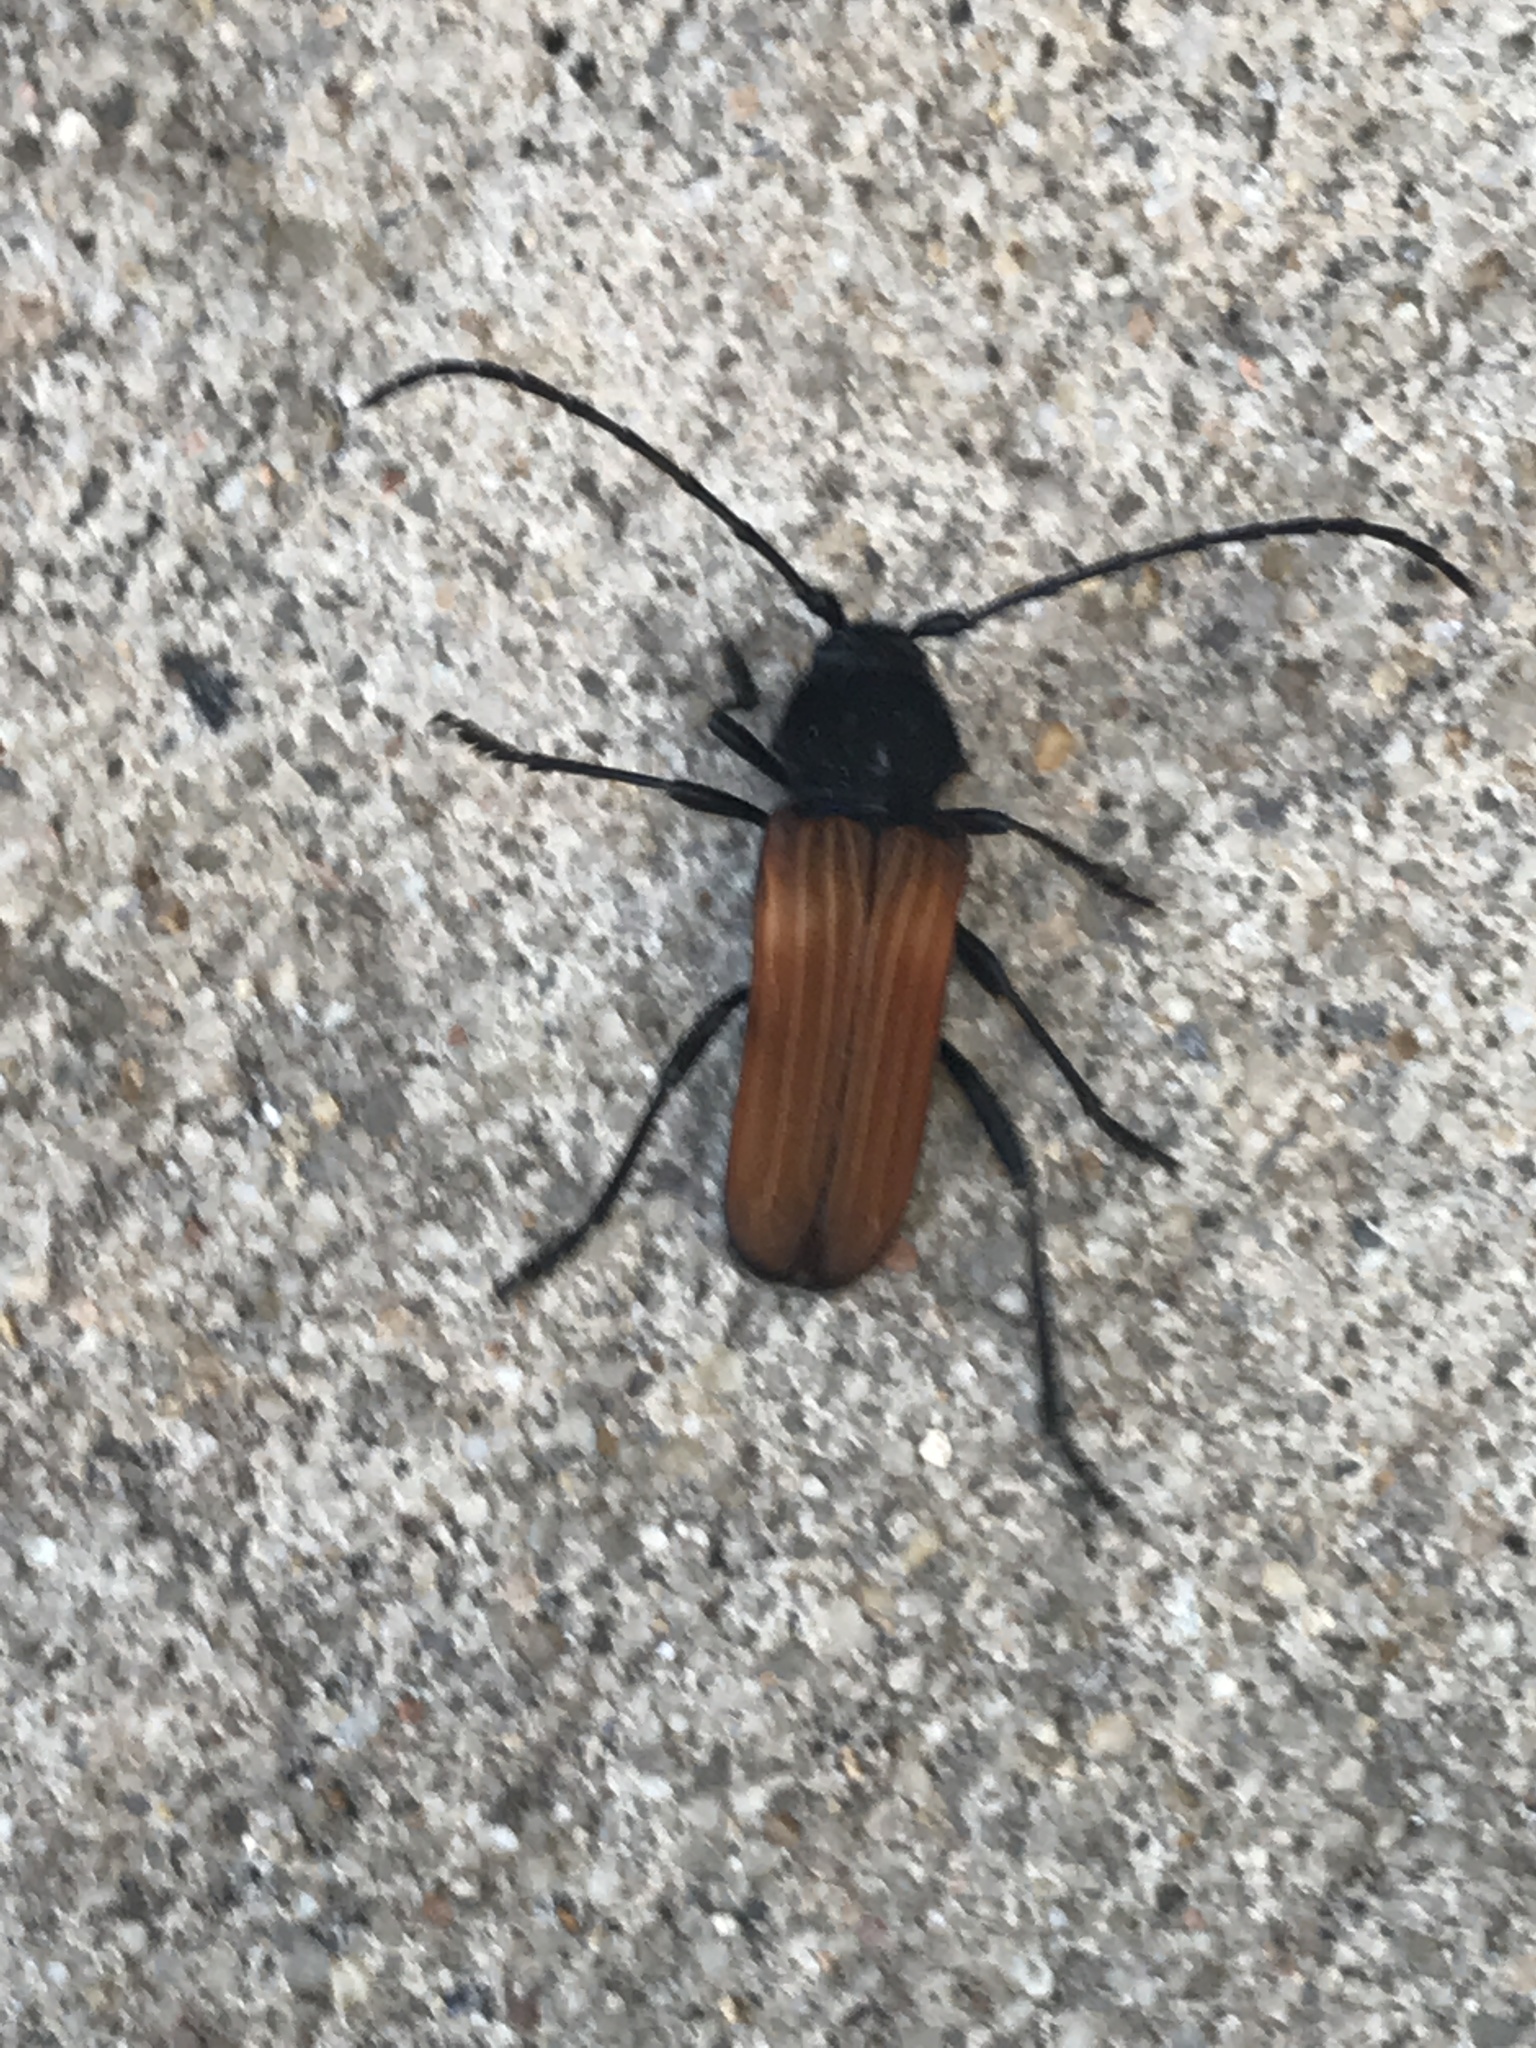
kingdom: Animalia
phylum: Arthropoda
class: Insecta
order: Coleoptera
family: Cerambycidae
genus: Tragidion
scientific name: Tragidion coquus
